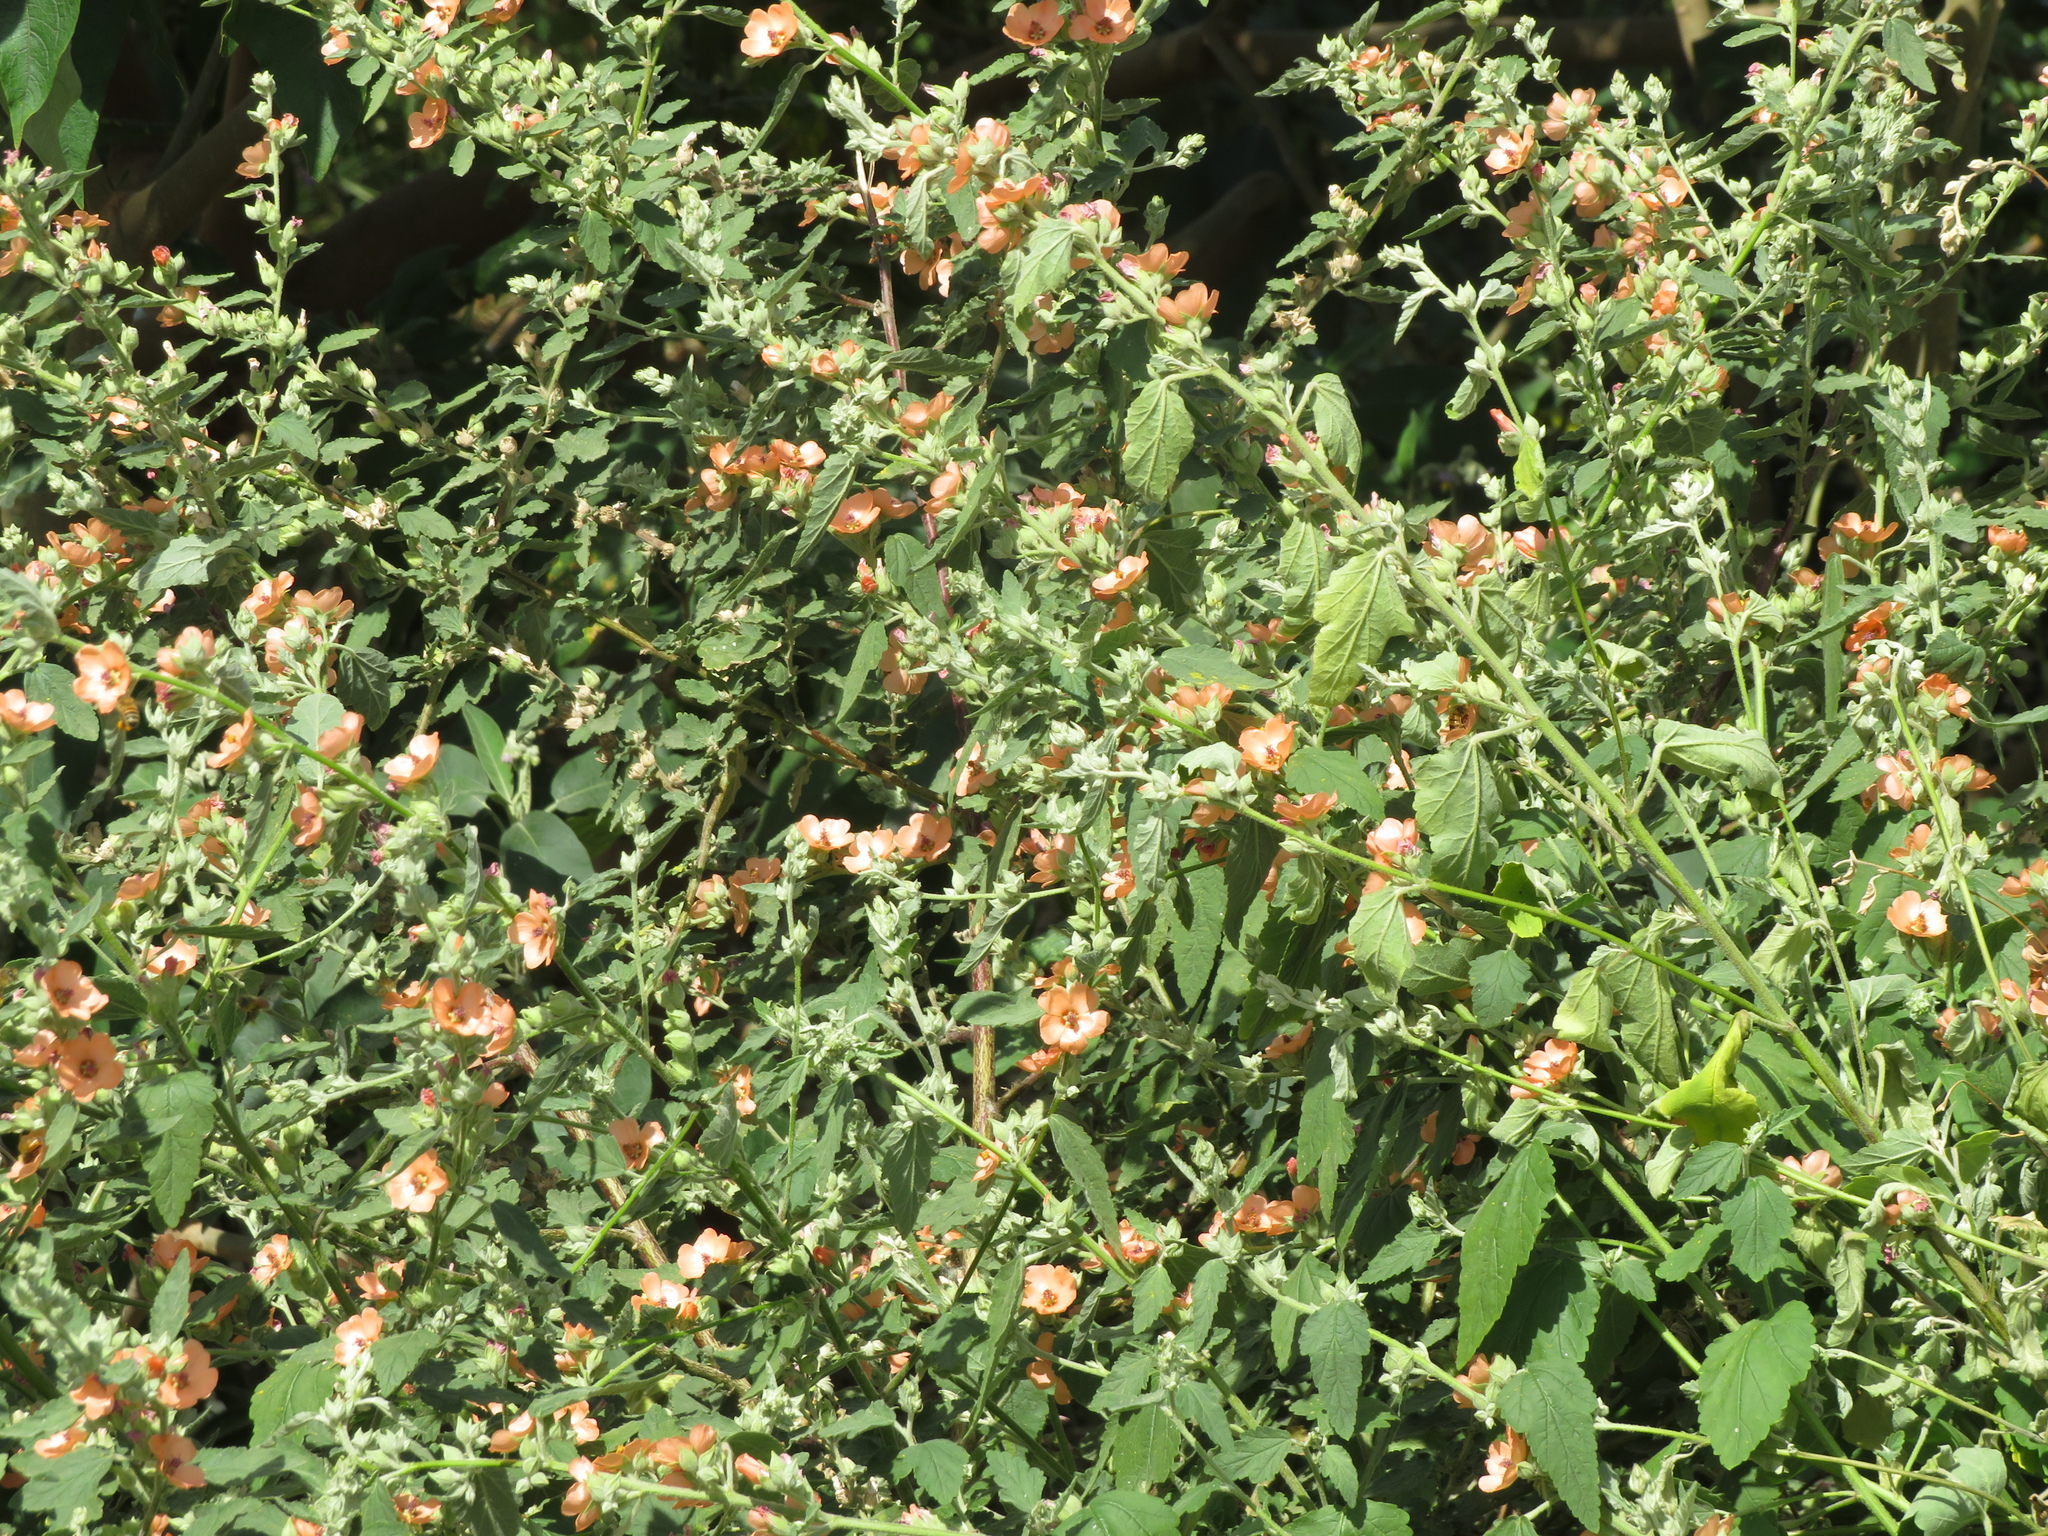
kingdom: Plantae
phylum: Tracheophyta
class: Magnoliopsida
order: Malvales
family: Malvaceae
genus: Sphaeralcea
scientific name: Sphaeralcea bonariensis
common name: Latin globemallow
